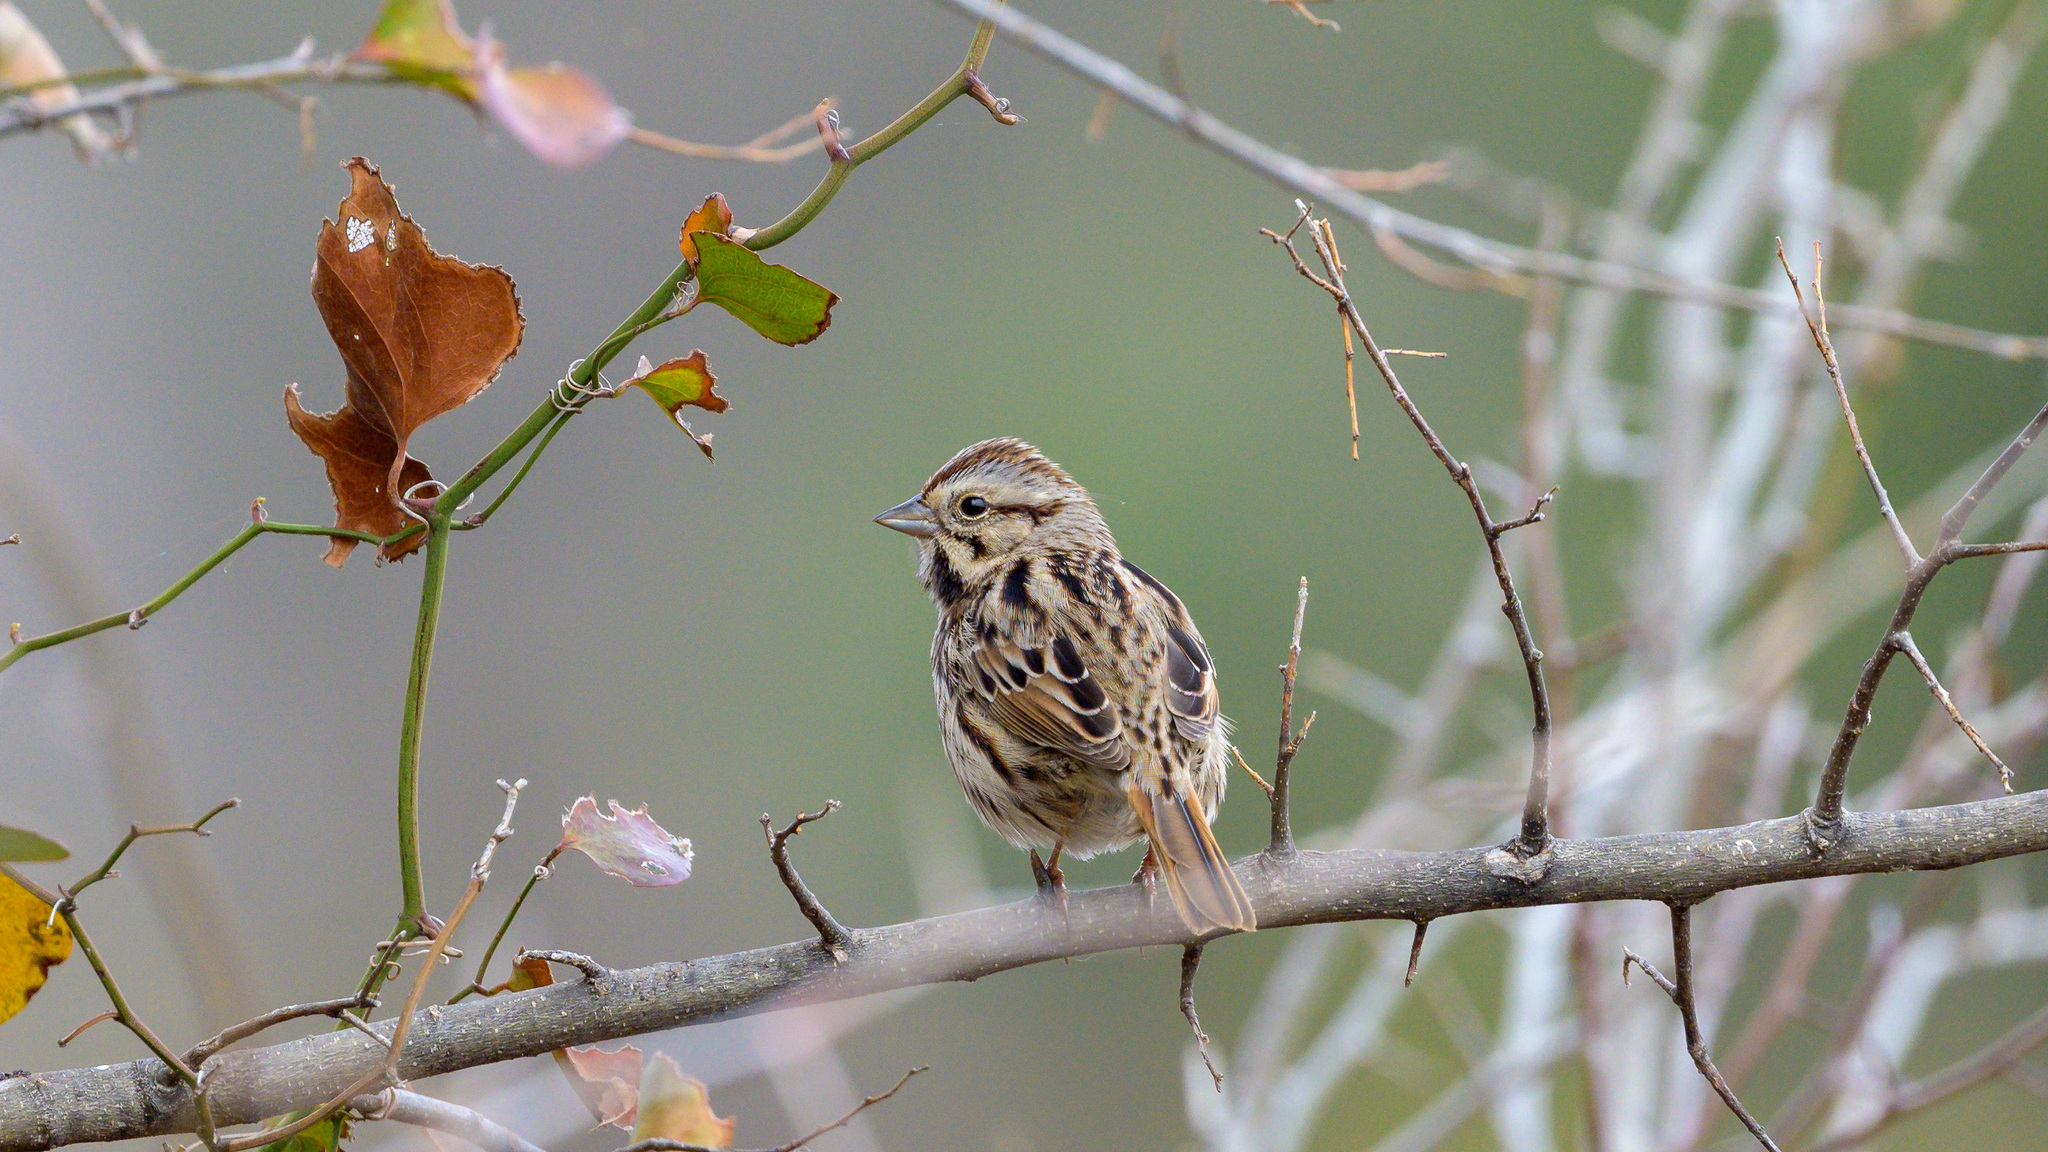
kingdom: Animalia
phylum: Chordata
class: Aves
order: Passeriformes
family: Passerellidae
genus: Melospiza
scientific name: Melospiza melodia
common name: Song sparrow
